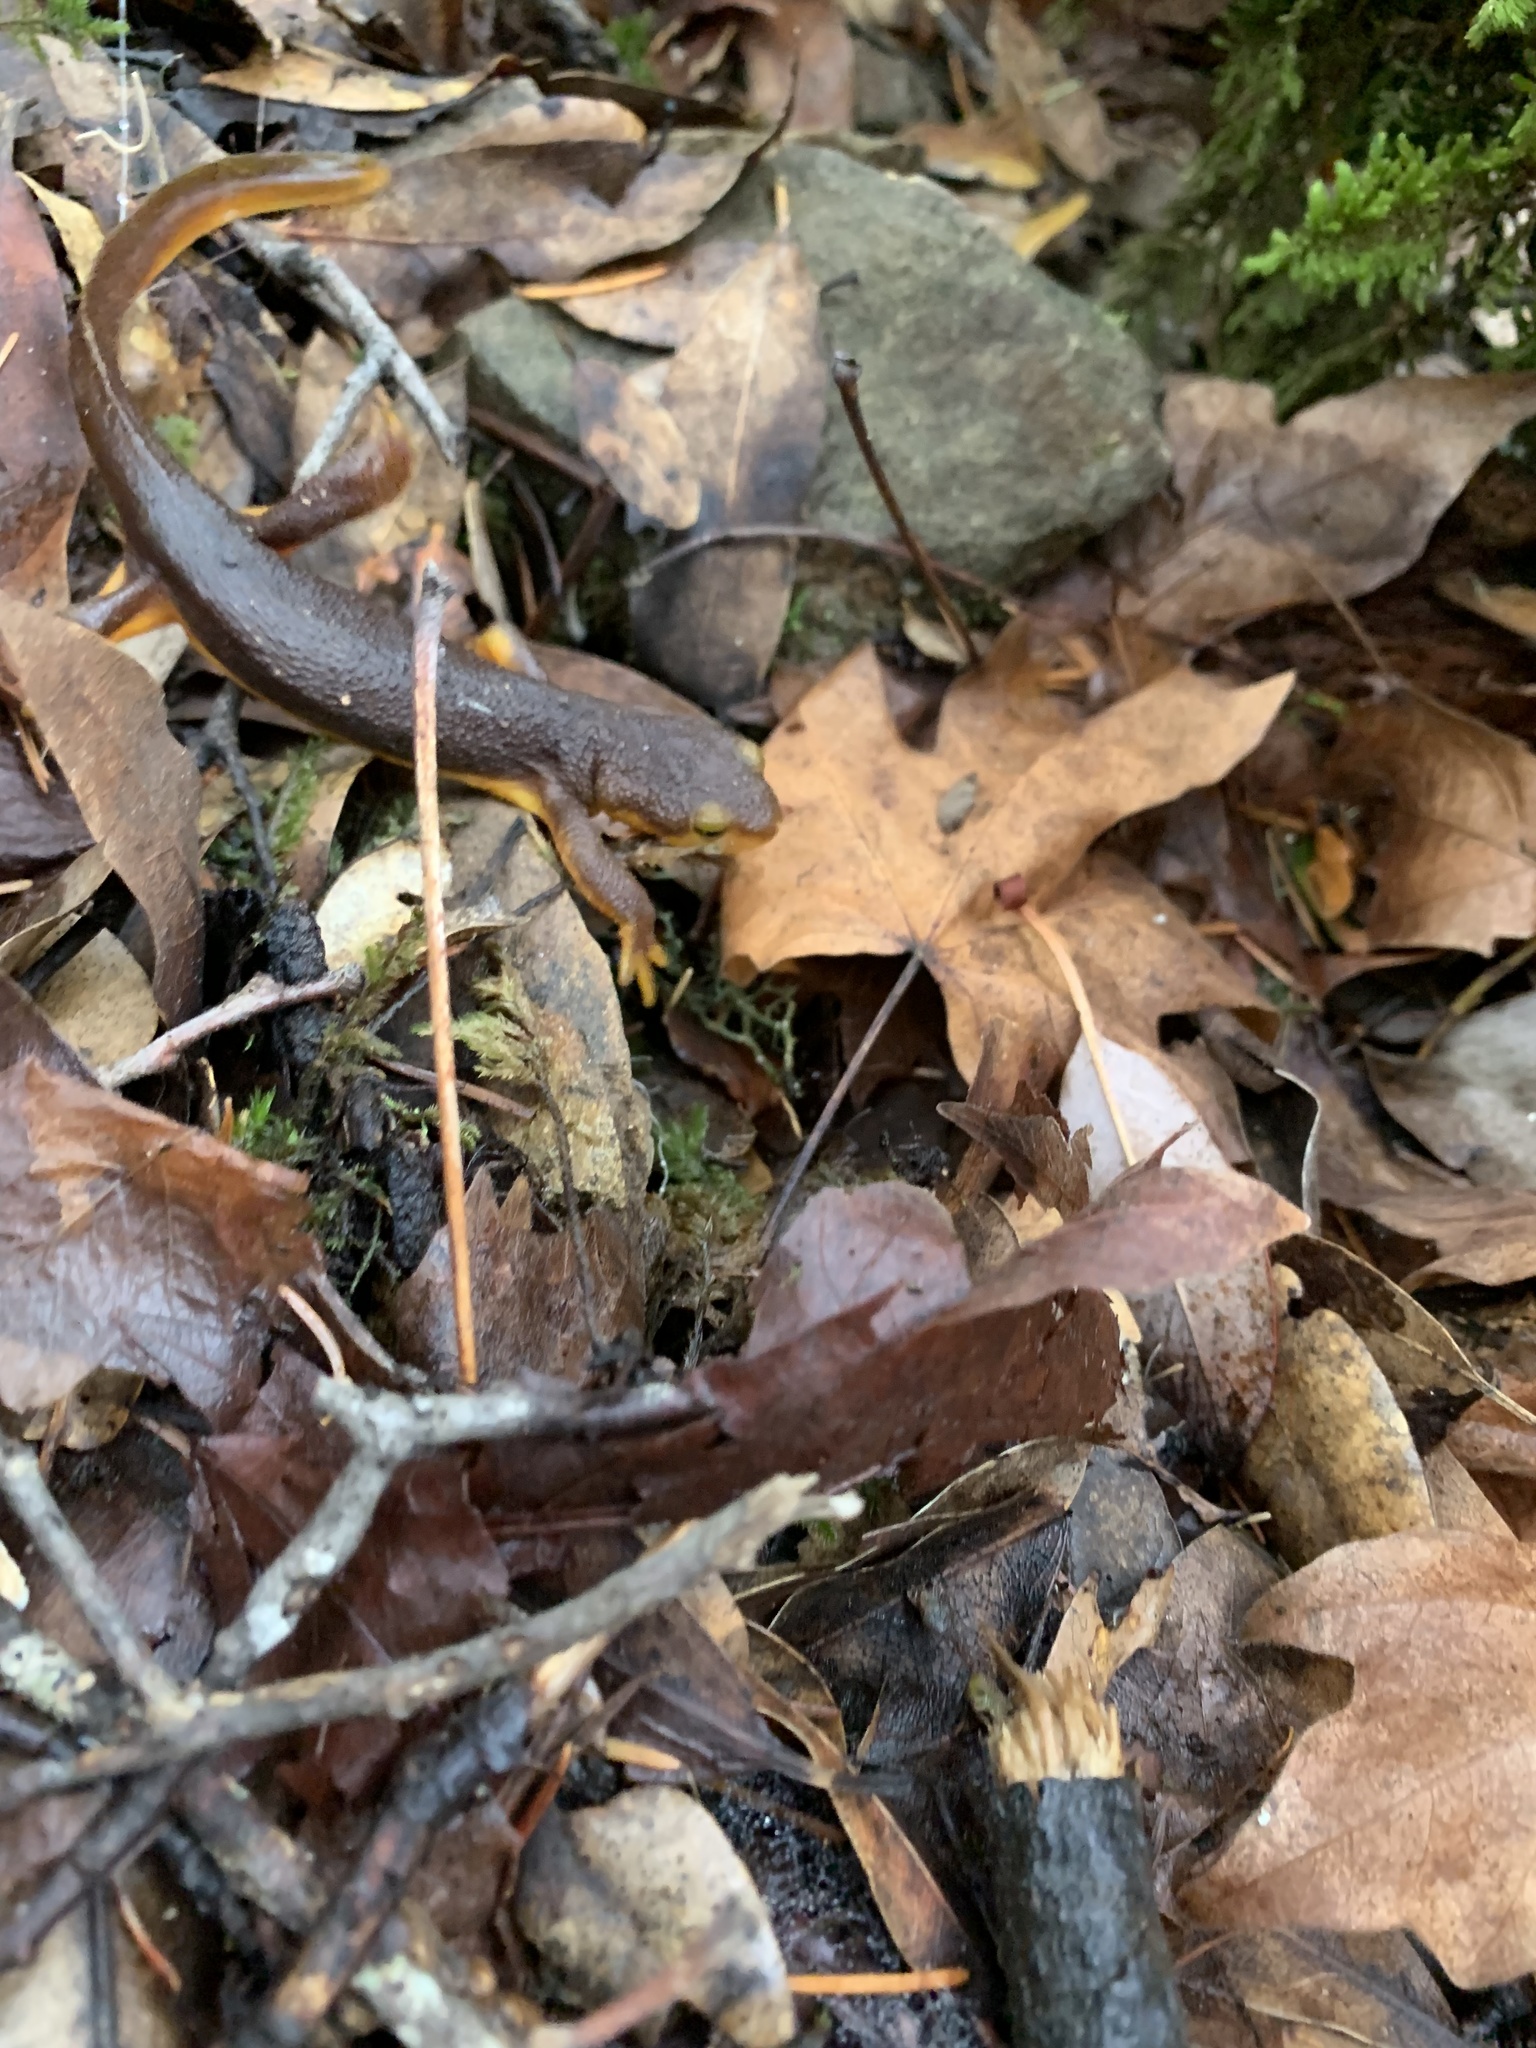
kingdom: Animalia
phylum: Chordata
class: Amphibia
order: Caudata
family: Salamandridae
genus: Taricha
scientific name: Taricha torosa
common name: California newt
